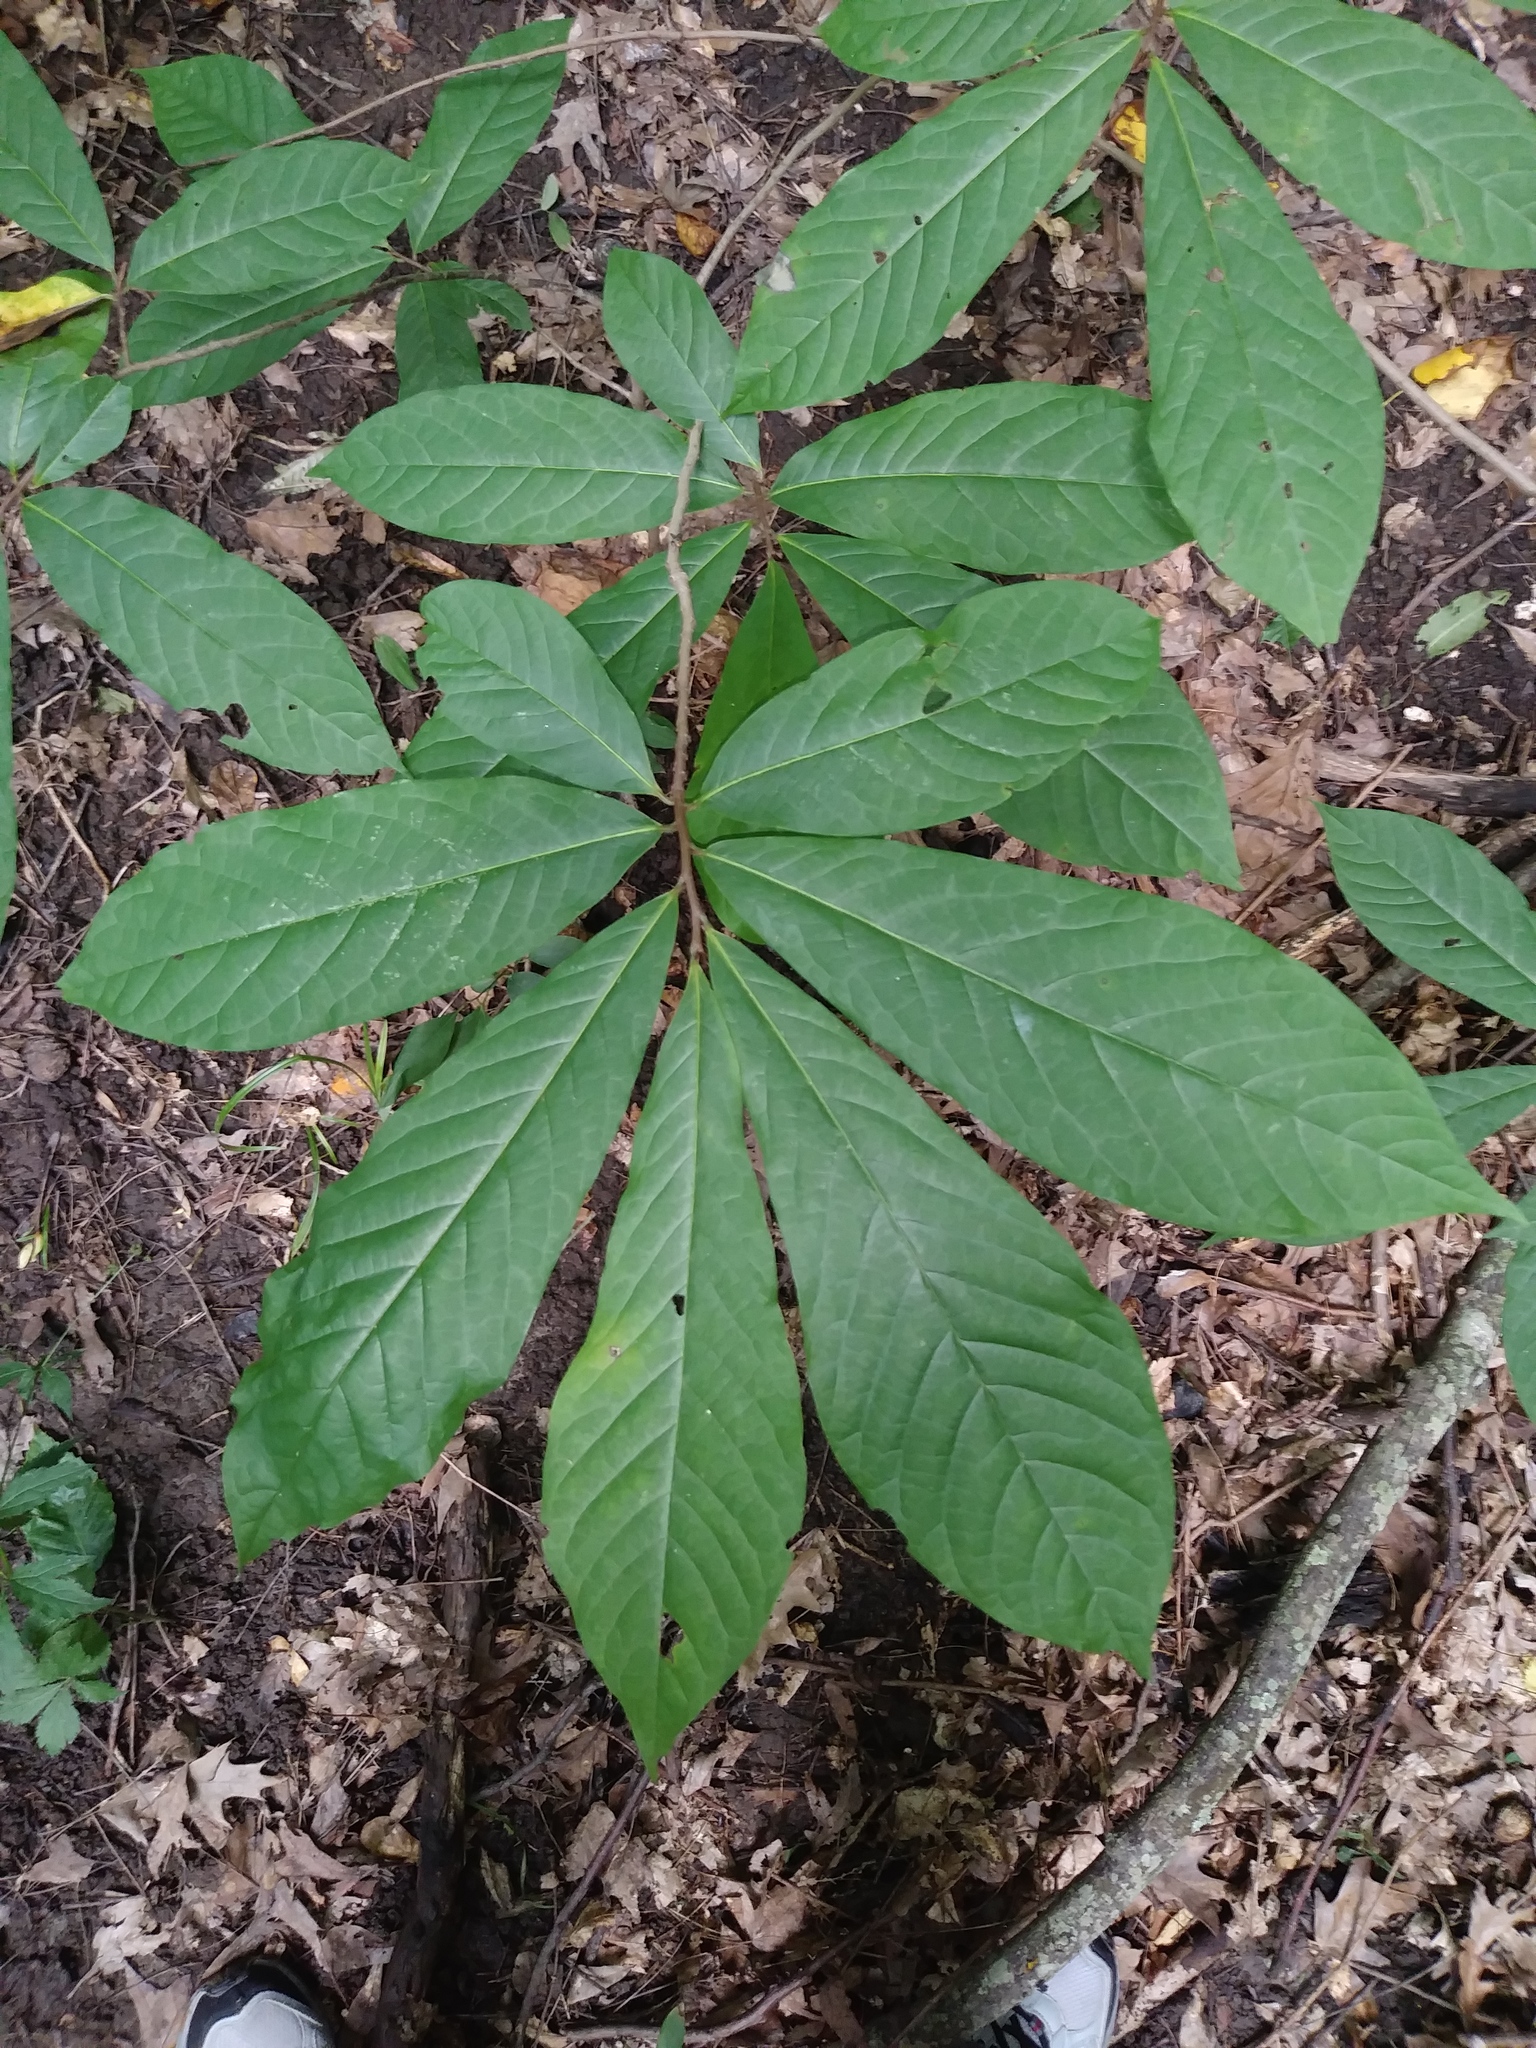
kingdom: Plantae
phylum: Tracheophyta
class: Magnoliopsida
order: Magnoliales
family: Annonaceae
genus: Asimina
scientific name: Asimina triloba
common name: Dog-banana
